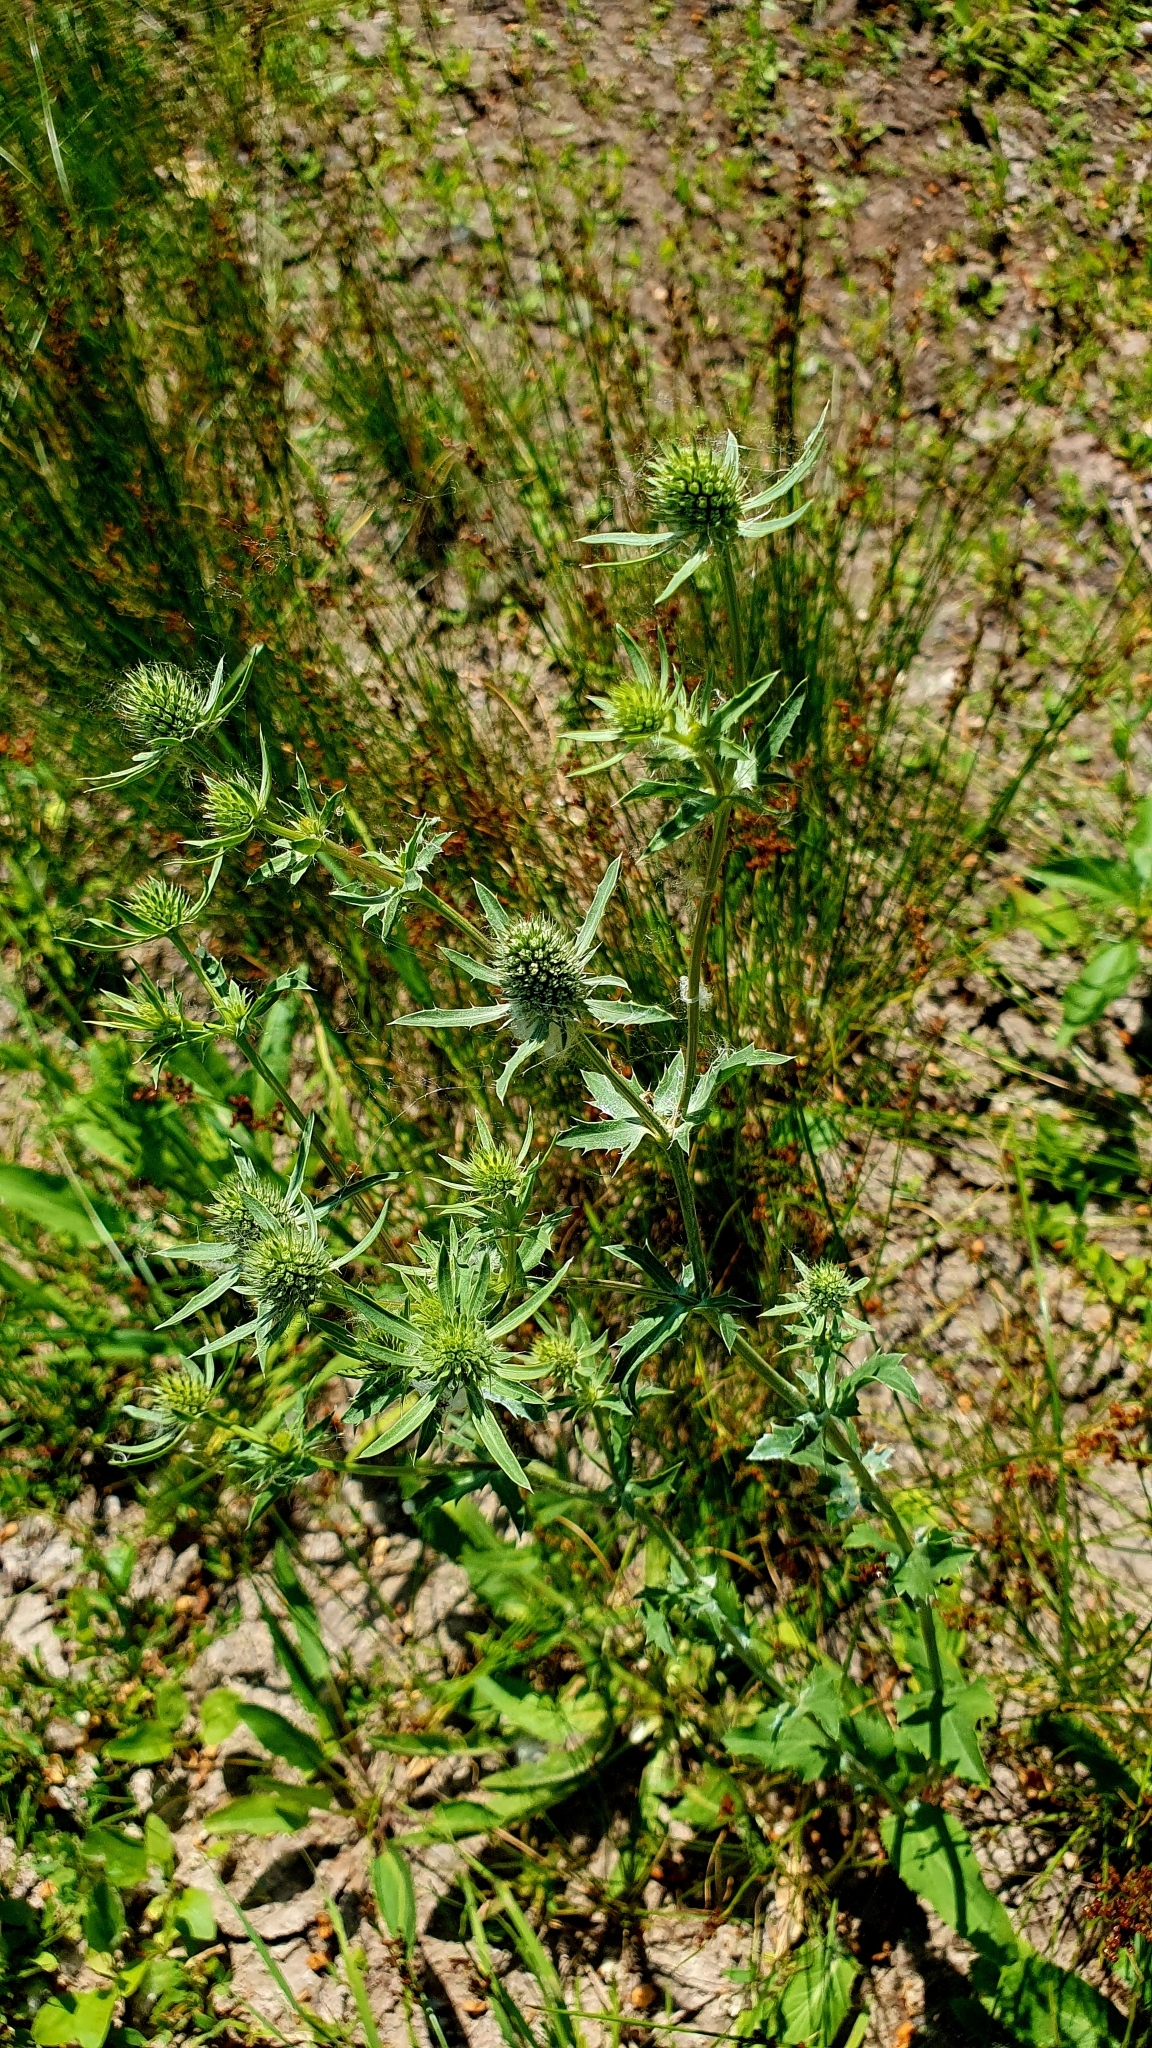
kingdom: Plantae
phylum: Tracheophyta
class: Magnoliopsida
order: Apiales
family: Apiaceae
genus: Eryngium
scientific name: Eryngium planum
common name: Blue eryngo
